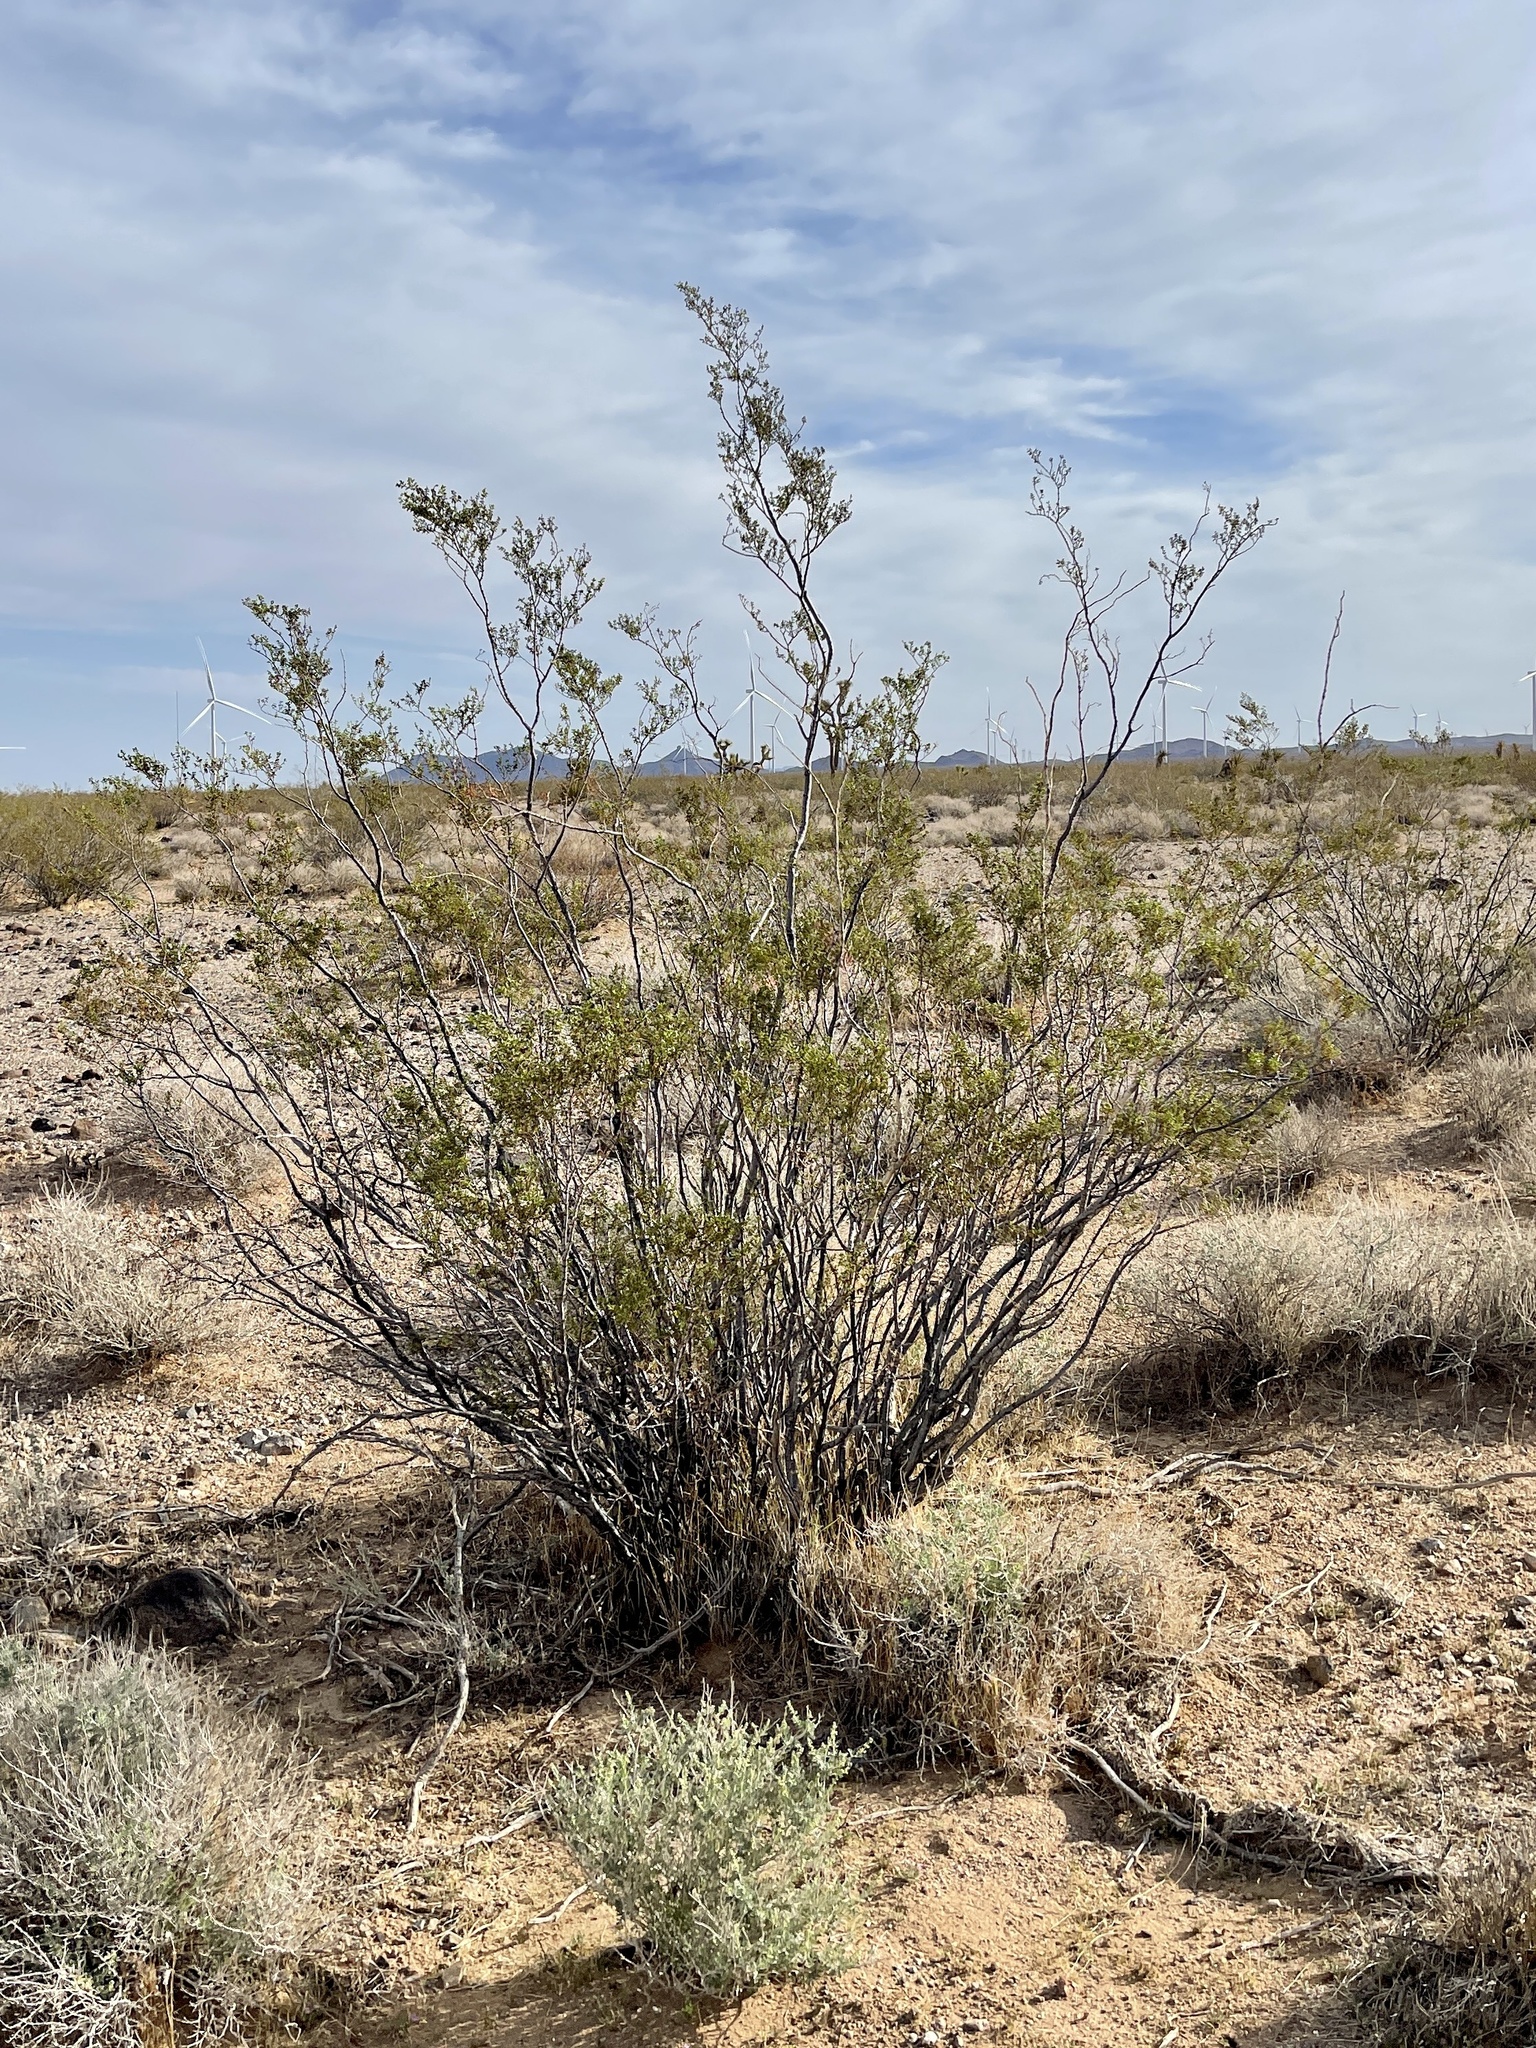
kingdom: Plantae
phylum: Tracheophyta
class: Magnoliopsida
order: Zygophyllales
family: Zygophyllaceae
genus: Larrea
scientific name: Larrea tridentata
